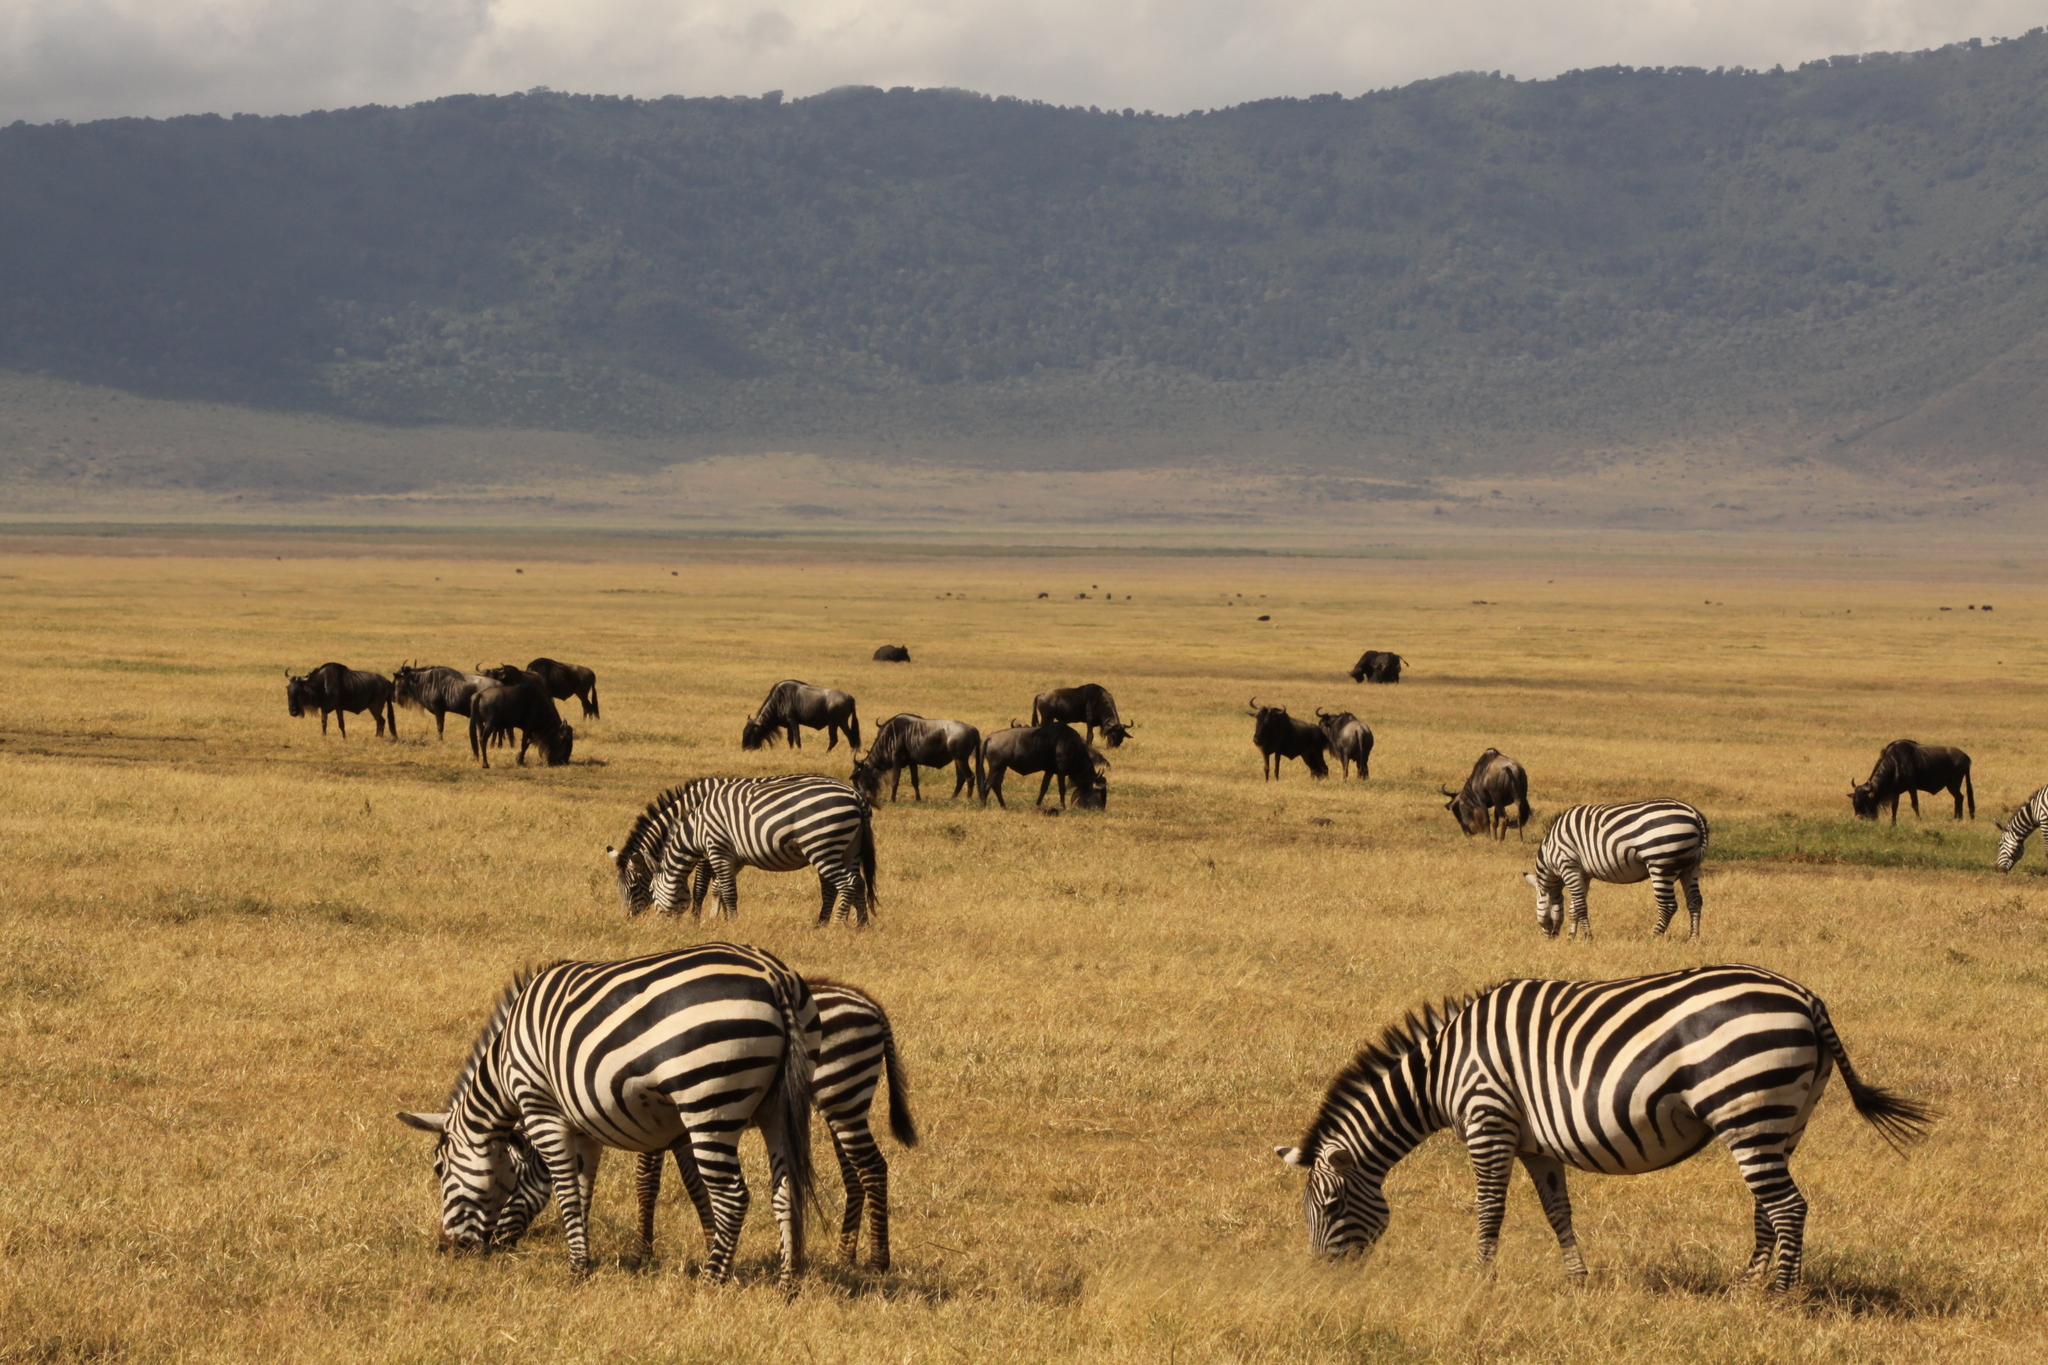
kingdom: Animalia
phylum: Chordata
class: Mammalia
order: Perissodactyla
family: Equidae
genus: Equus
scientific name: Equus quagga
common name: Plains zebra
